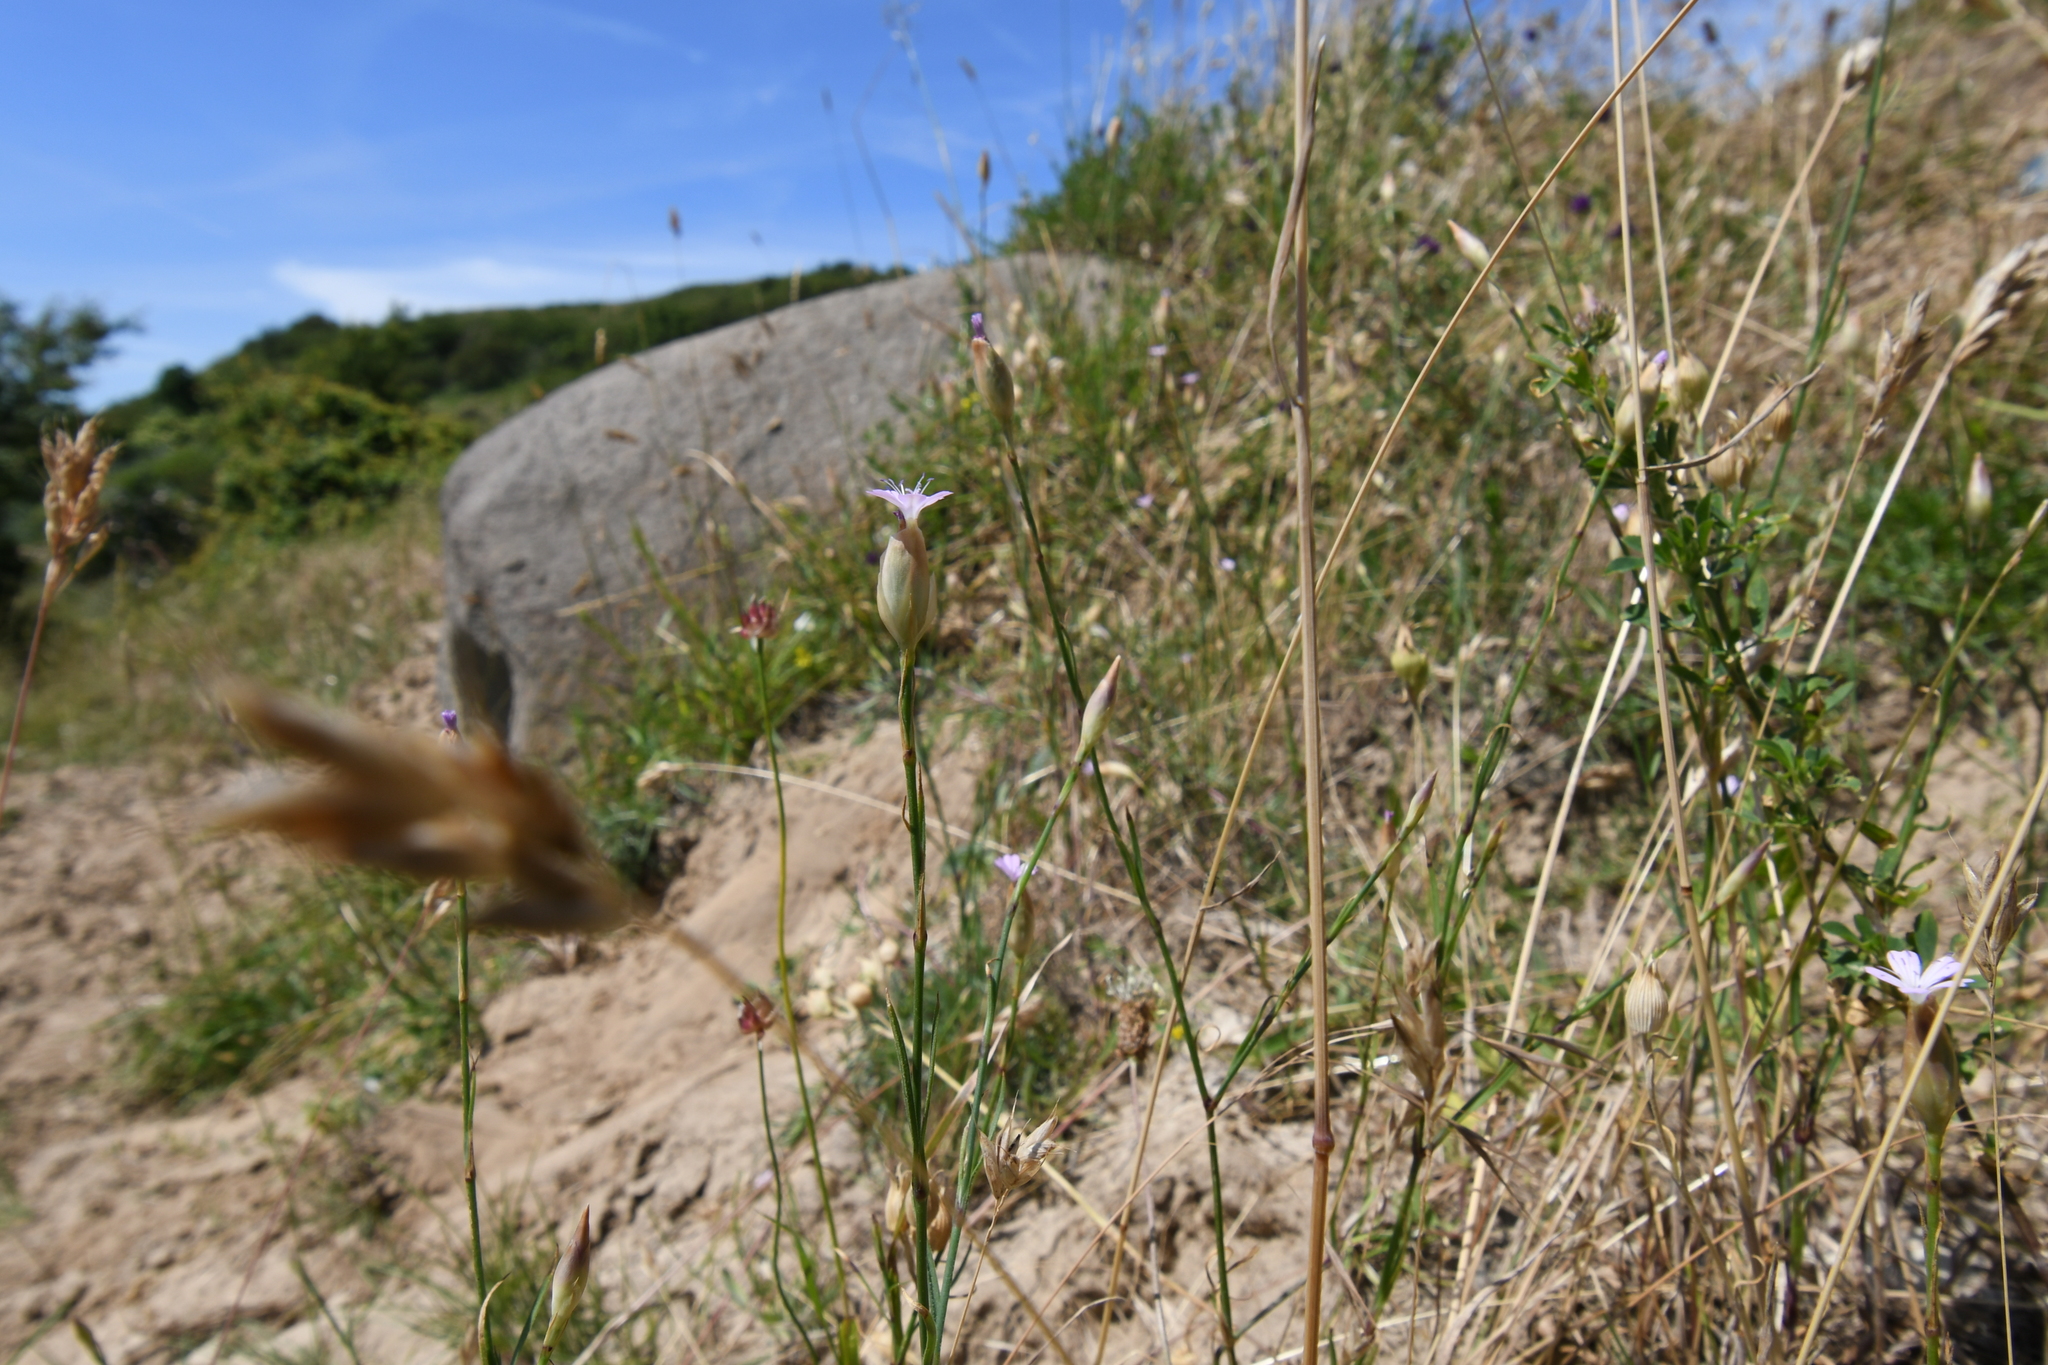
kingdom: Plantae
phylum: Tracheophyta
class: Magnoliopsida
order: Caryophyllales
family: Caryophyllaceae
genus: Petrorhagia
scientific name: Petrorhagia prolifera
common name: Proliferous pink
